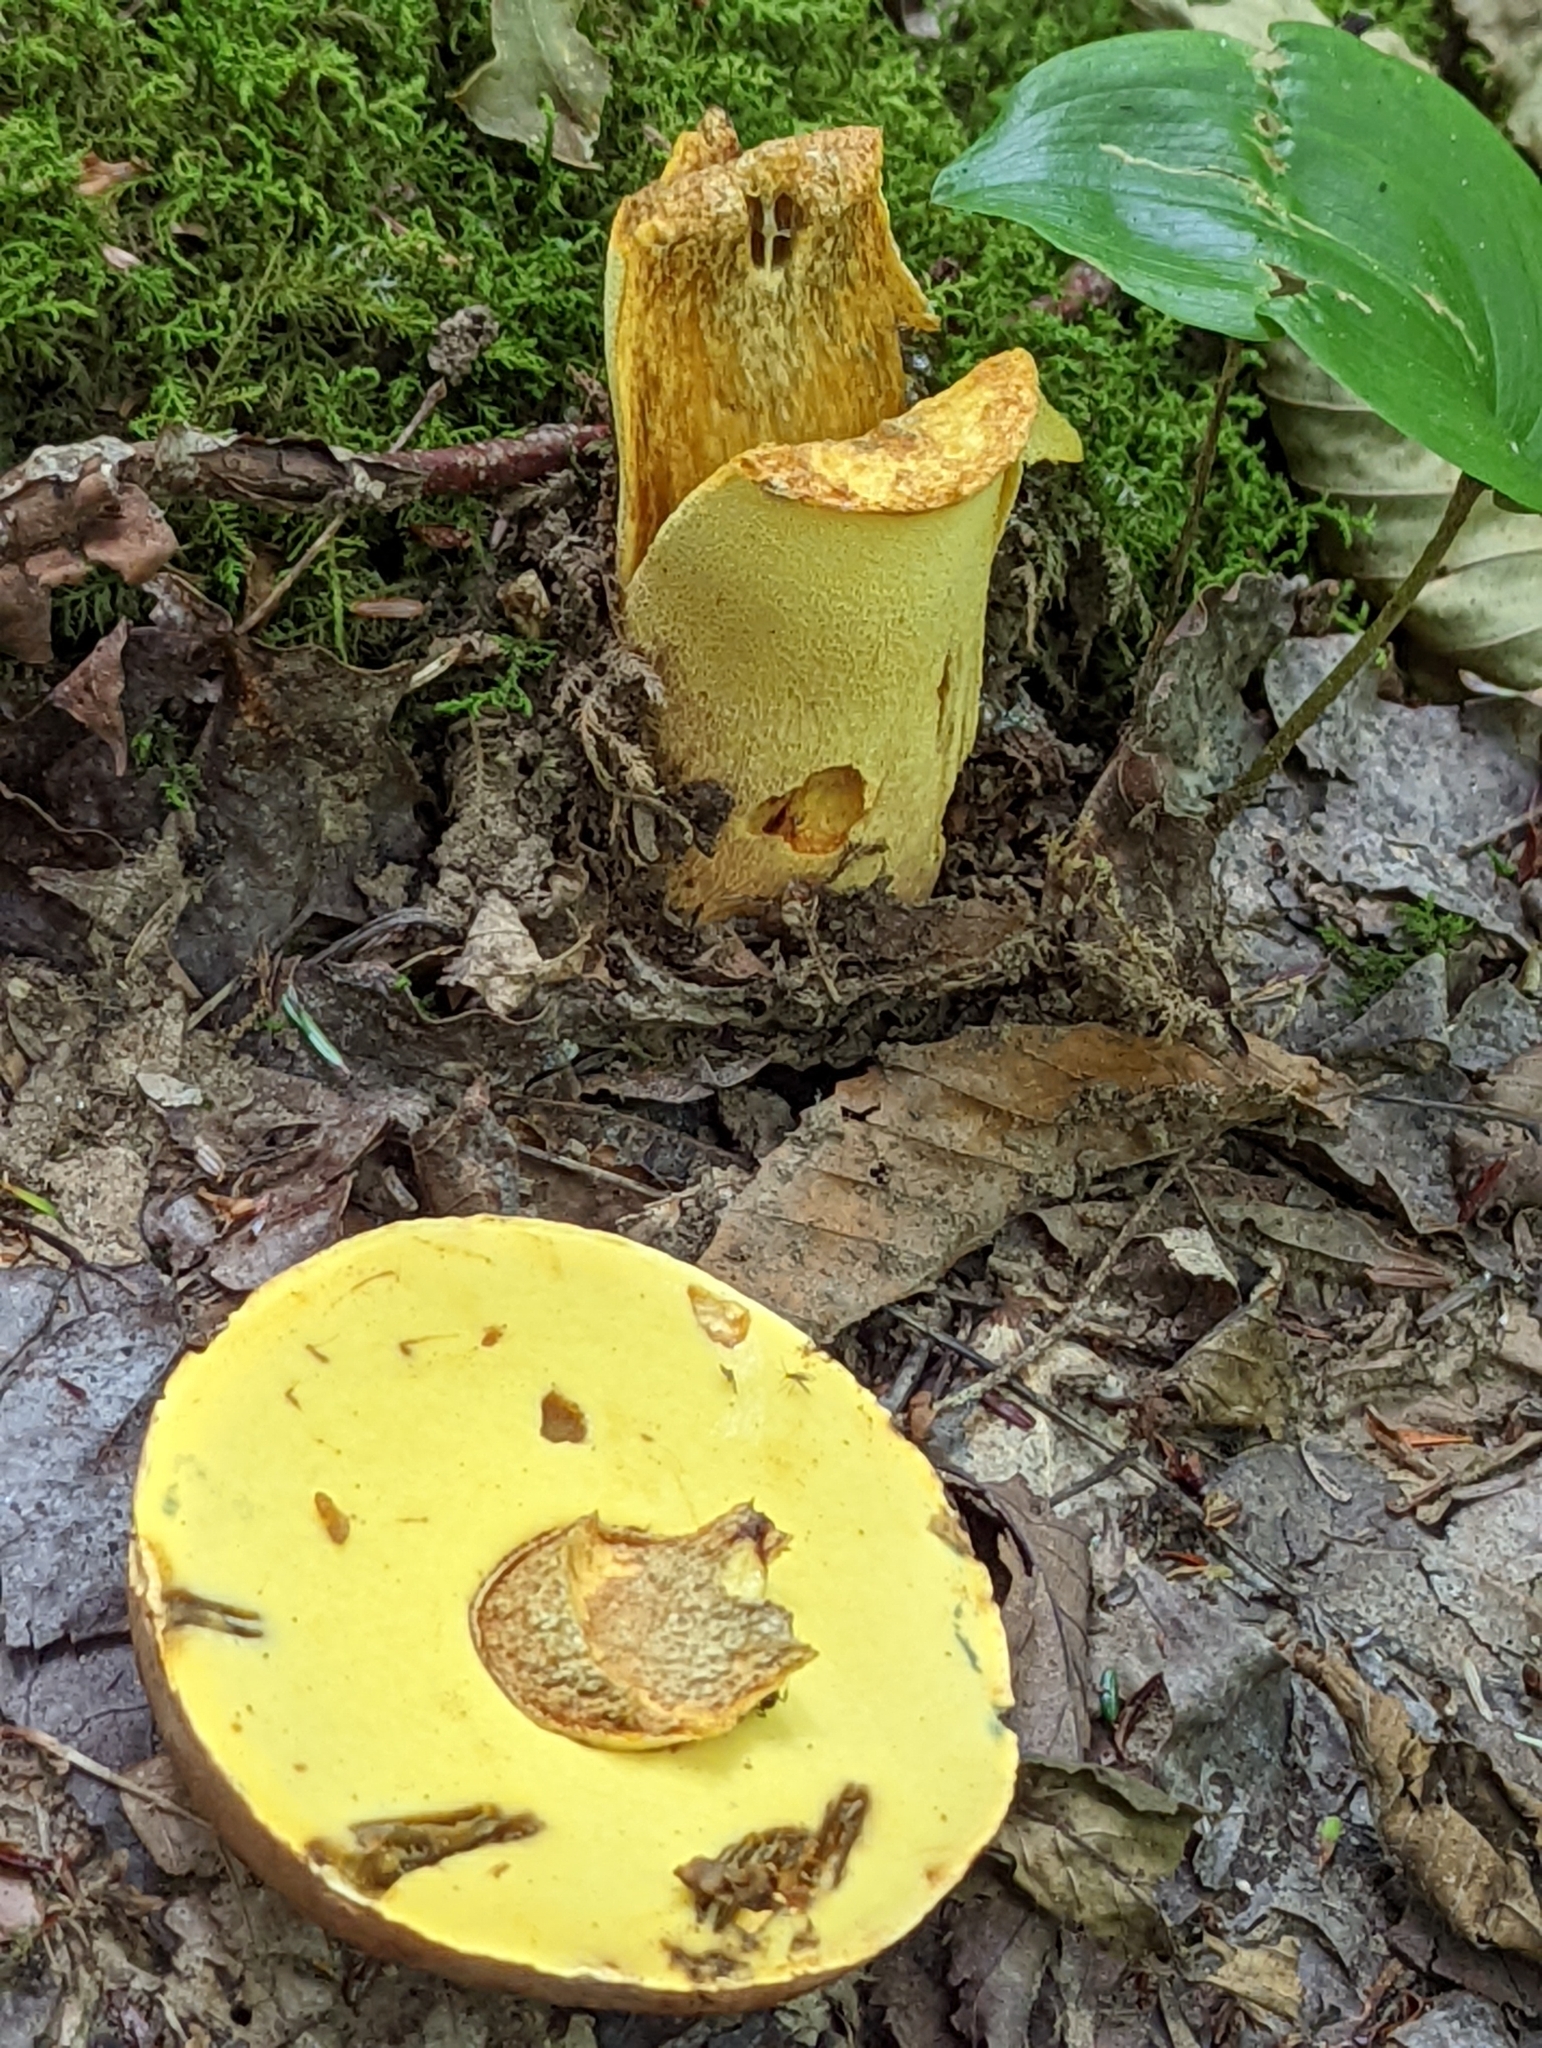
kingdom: Fungi
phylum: Basidiomycota
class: Agaricomycetes
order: Boletales
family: Boletaceae
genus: Butyriboletus
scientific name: Butyriboletus brunneus
